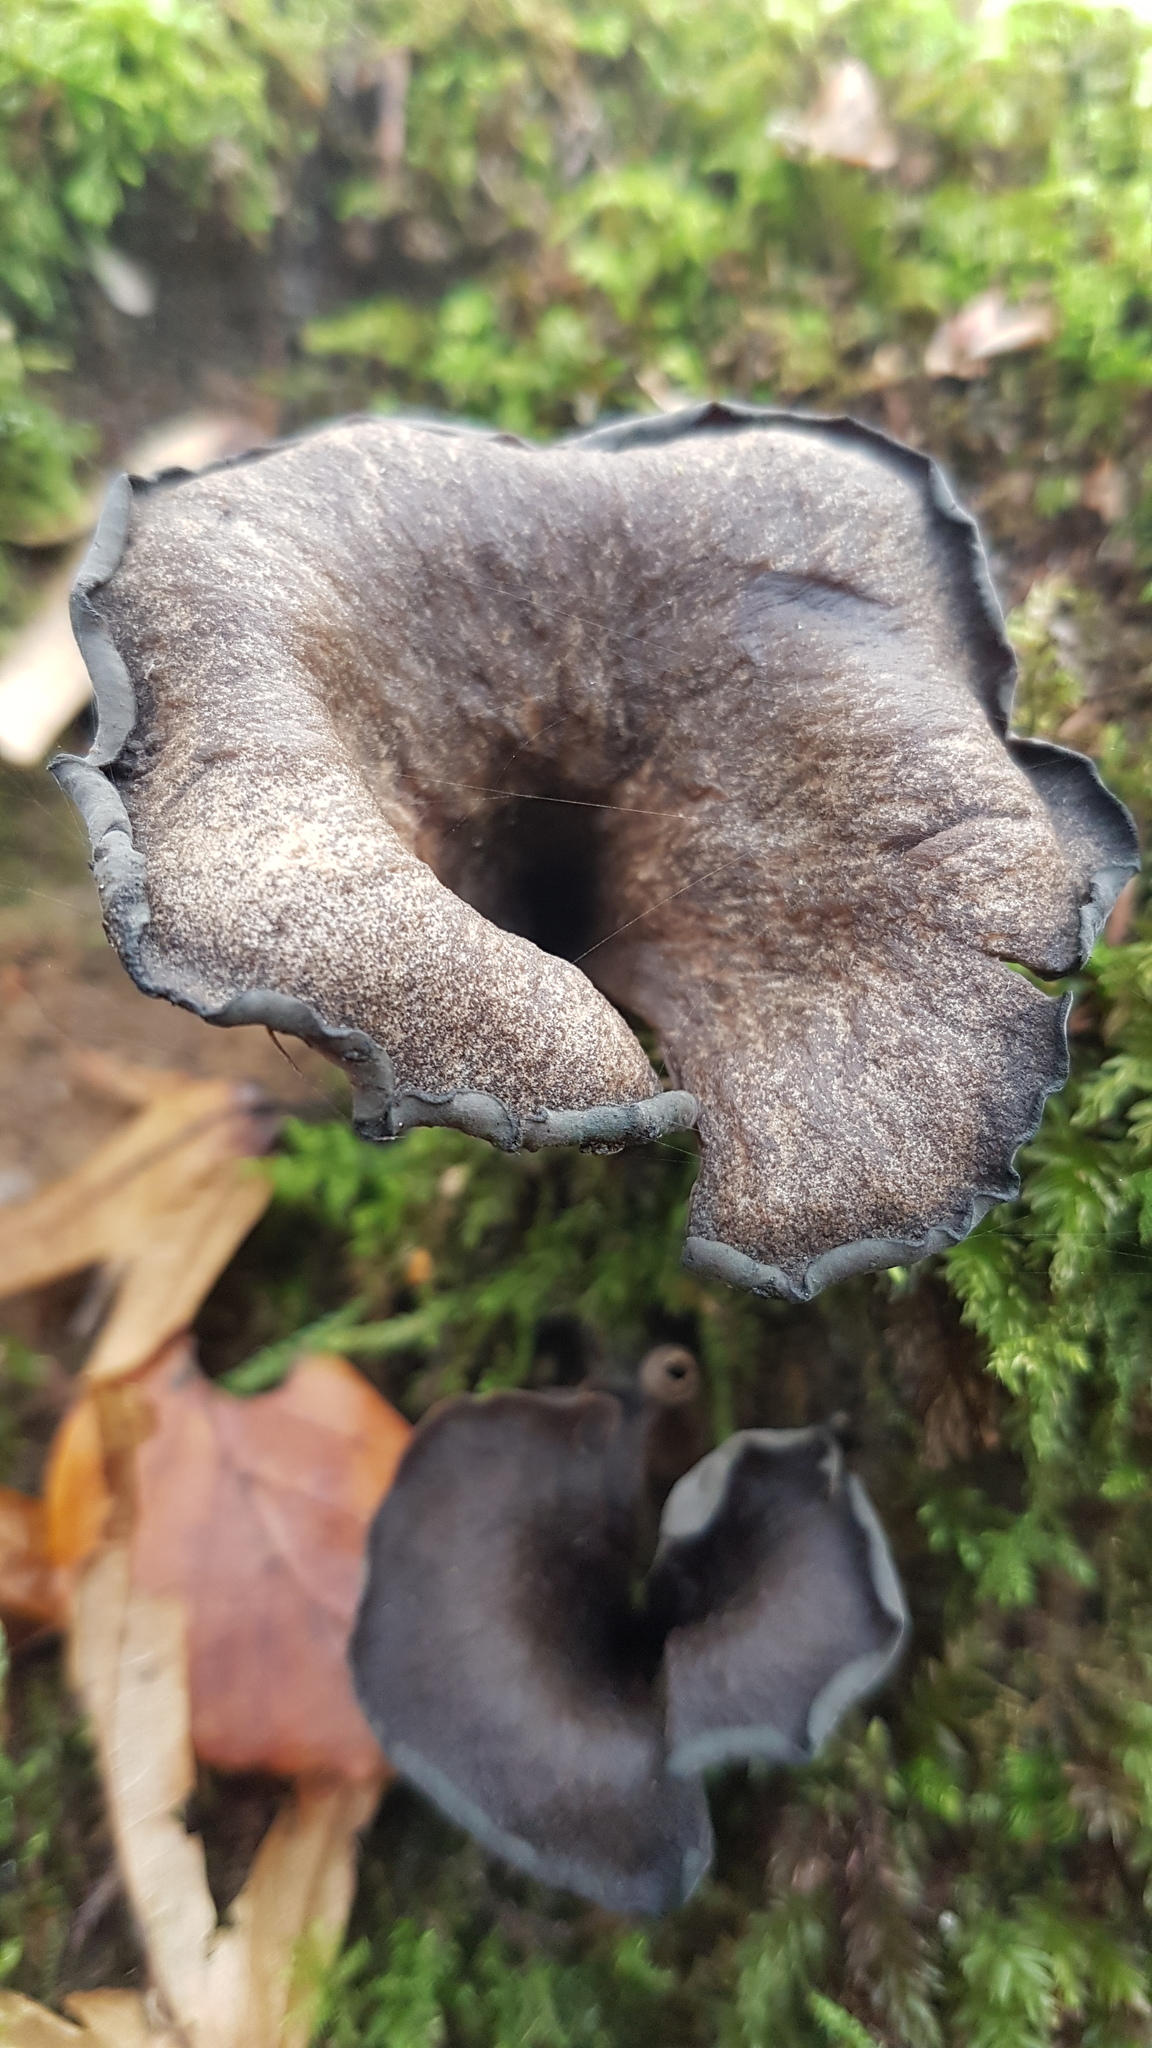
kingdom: Fungi
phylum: Basidiomycota
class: Agaricomycetes
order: Cantharellales
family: Hydnaceae
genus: Craterellus
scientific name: Craterellus cornucopioides
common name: Horn of plenty
